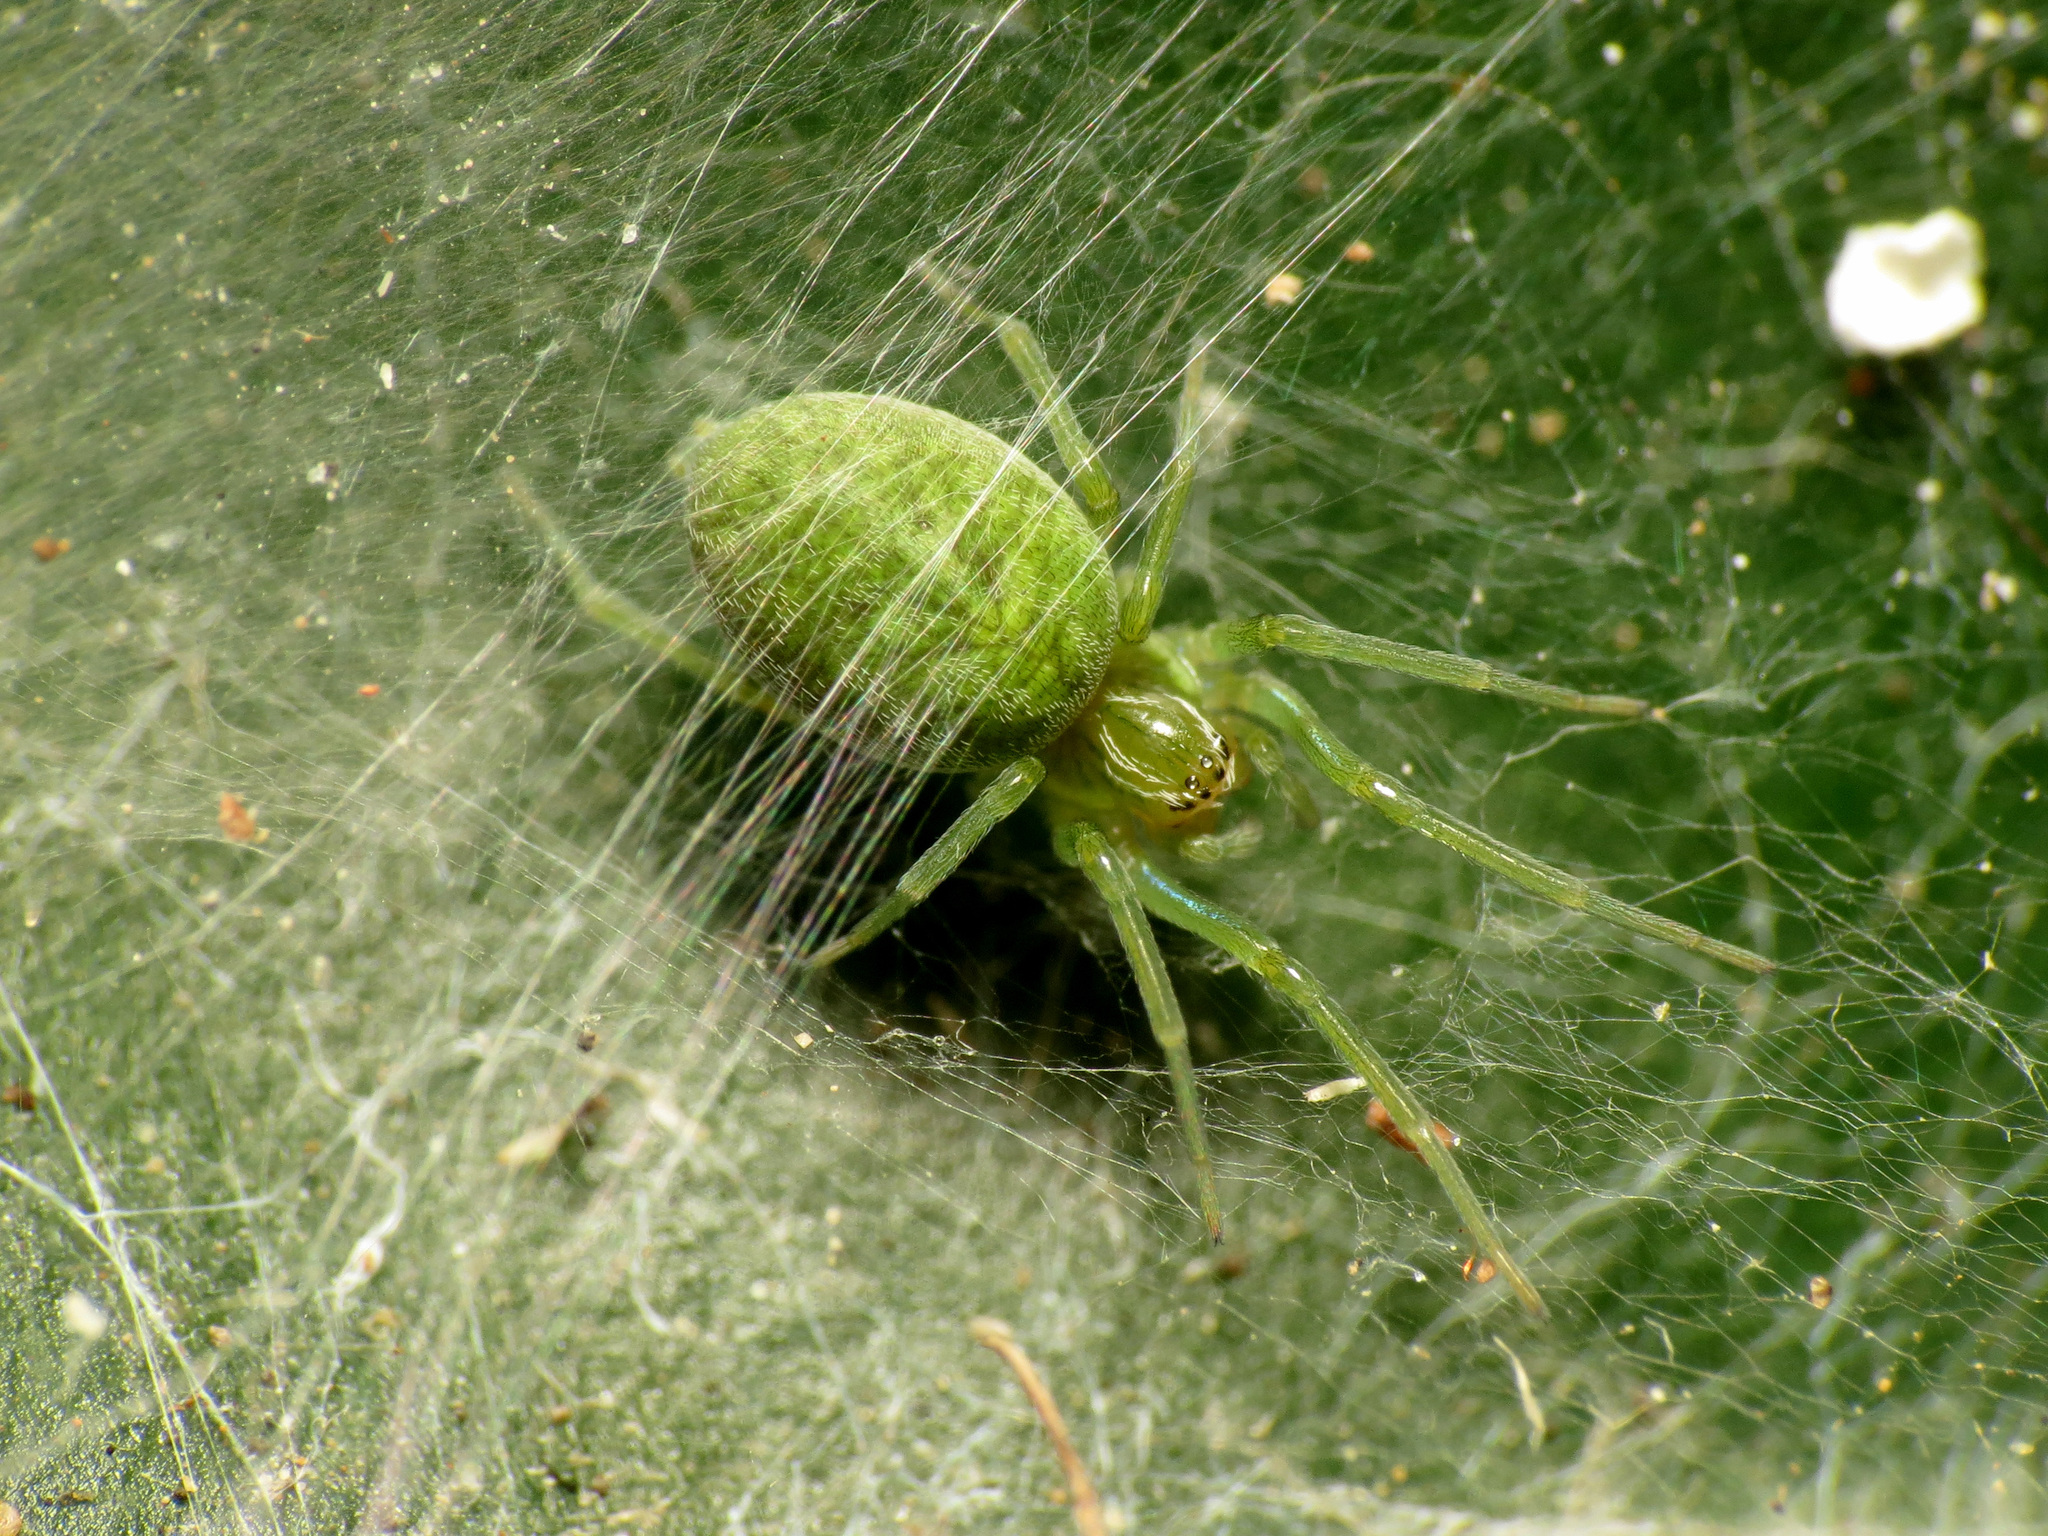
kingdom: Animalia
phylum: Arthropoda
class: Arachnida
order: Araneae
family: Dictynidae
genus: Nigma
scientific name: Nigma walckenaeri
